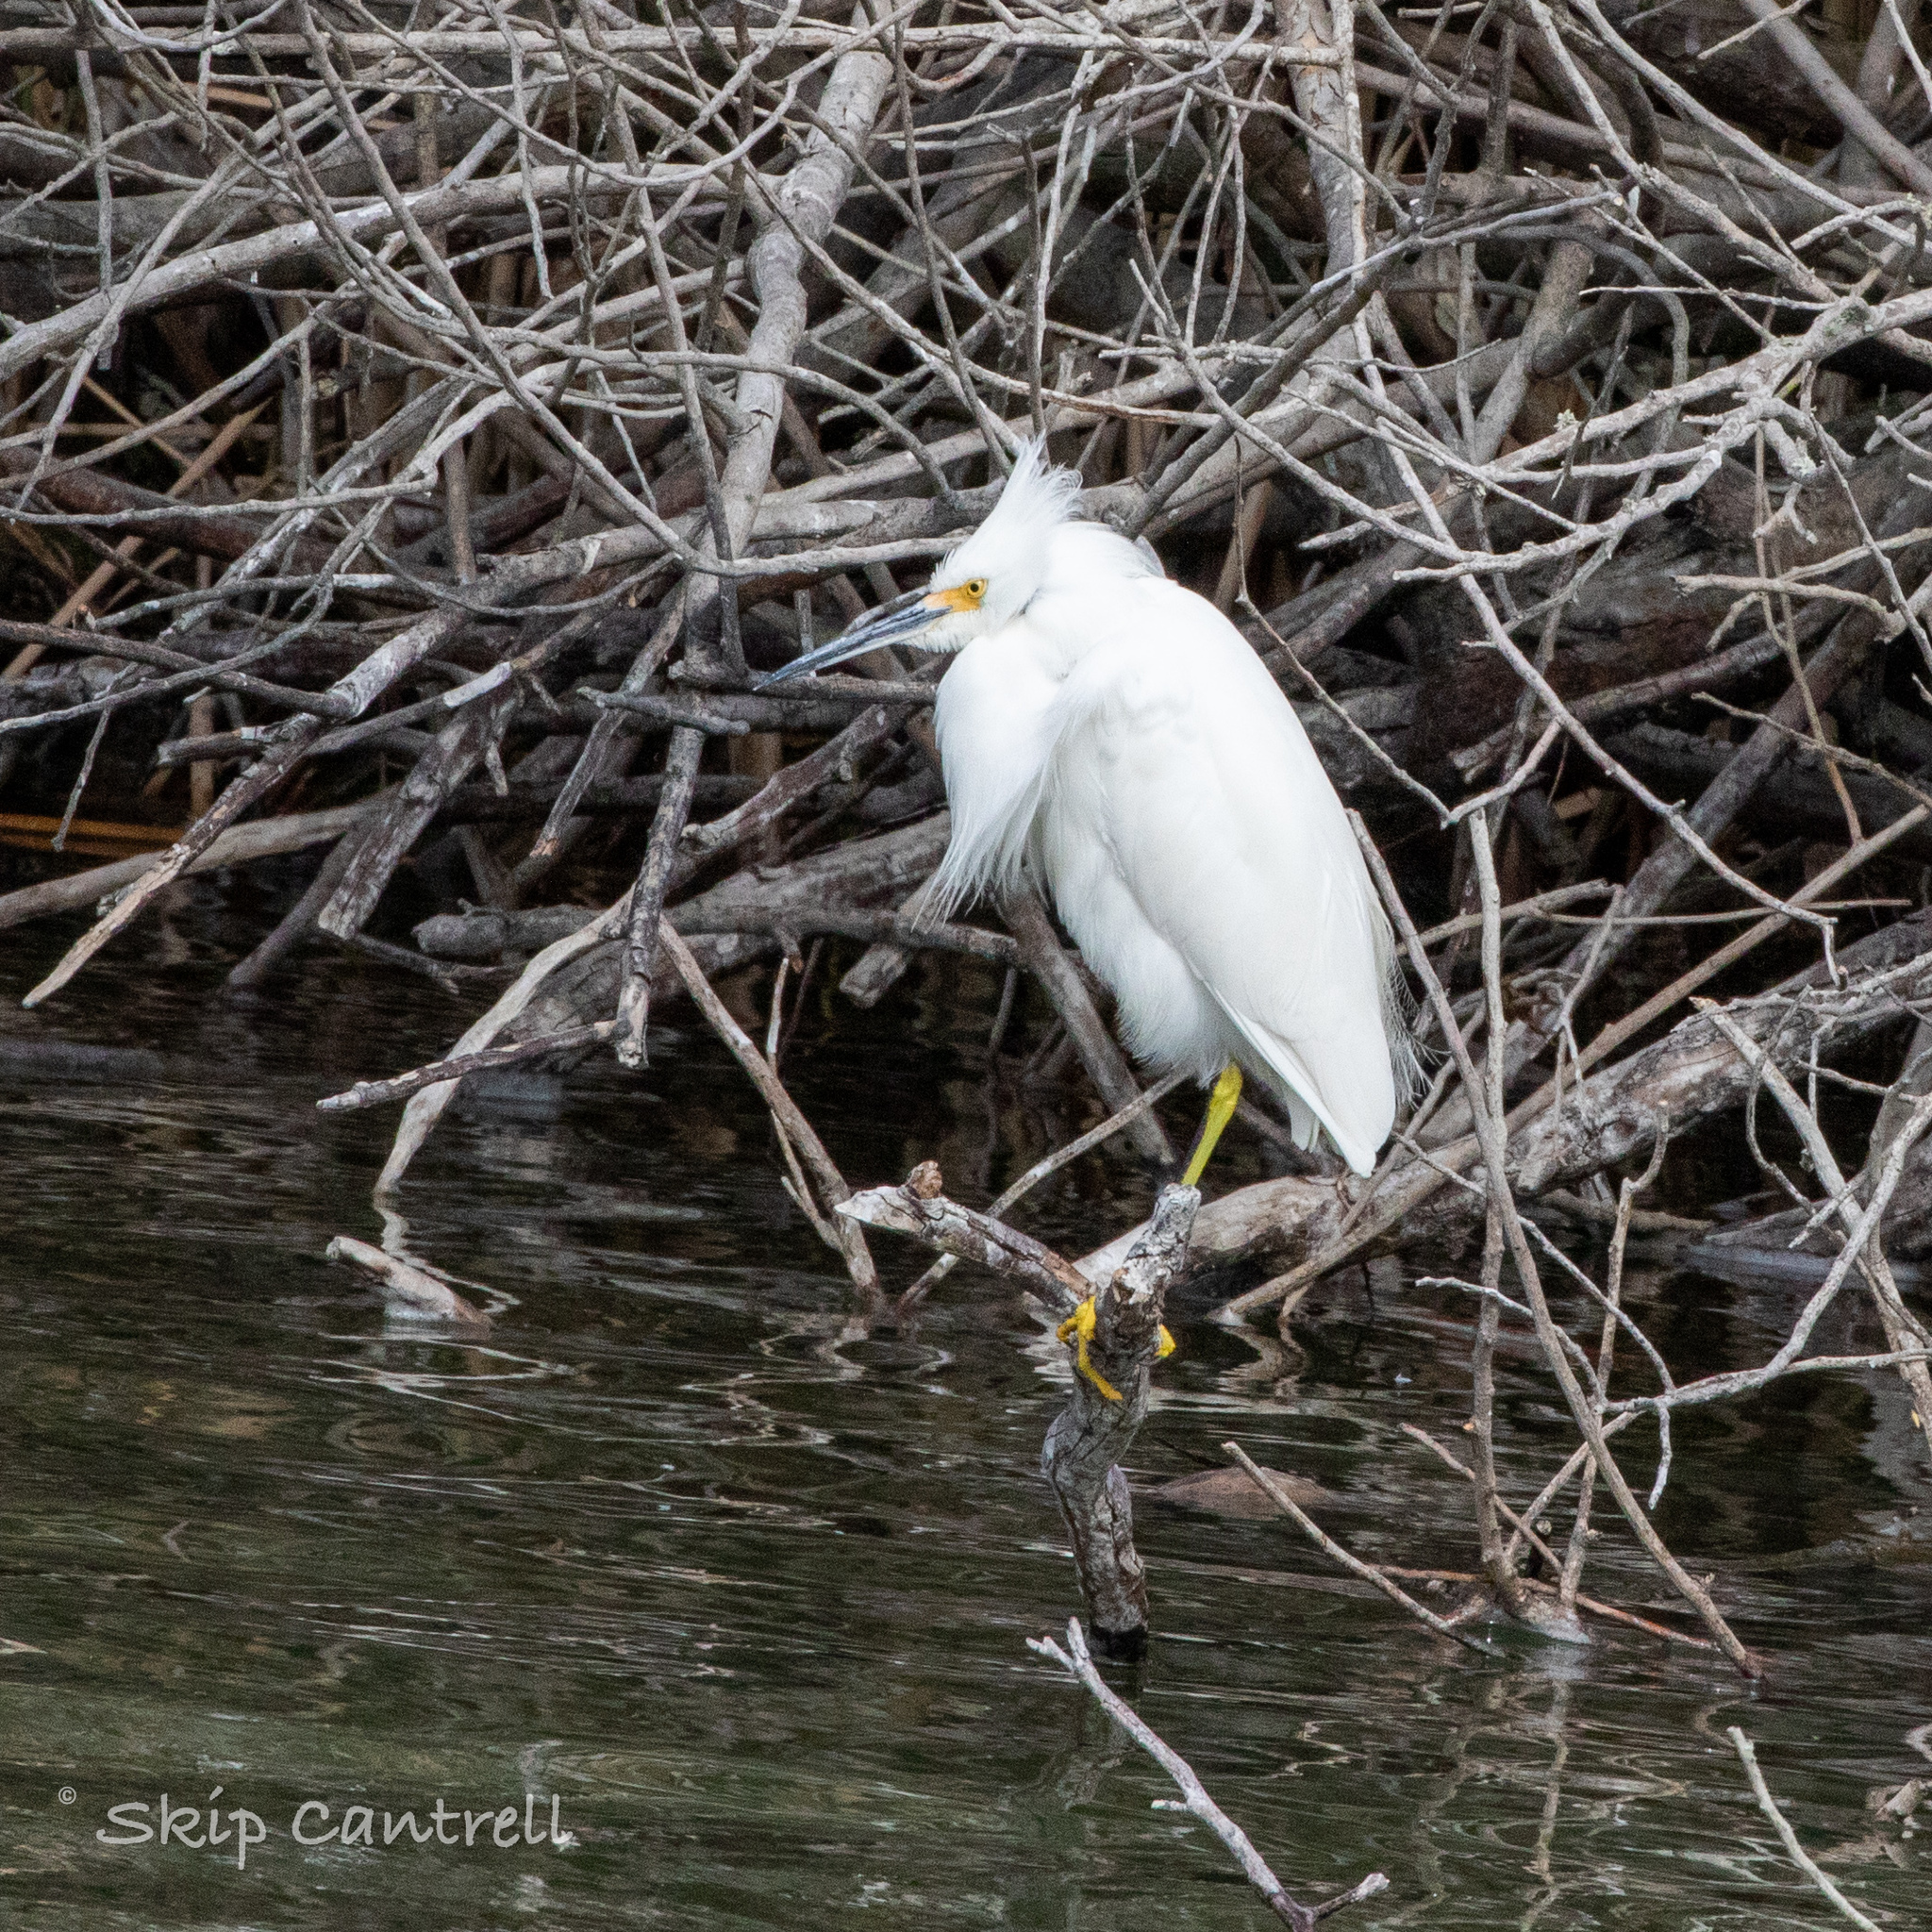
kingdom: Animalia
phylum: Chordata
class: Aves
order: Pelecaniformes
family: Ardeidae
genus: Egretta
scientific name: Egretta thula
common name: Snowy egret
